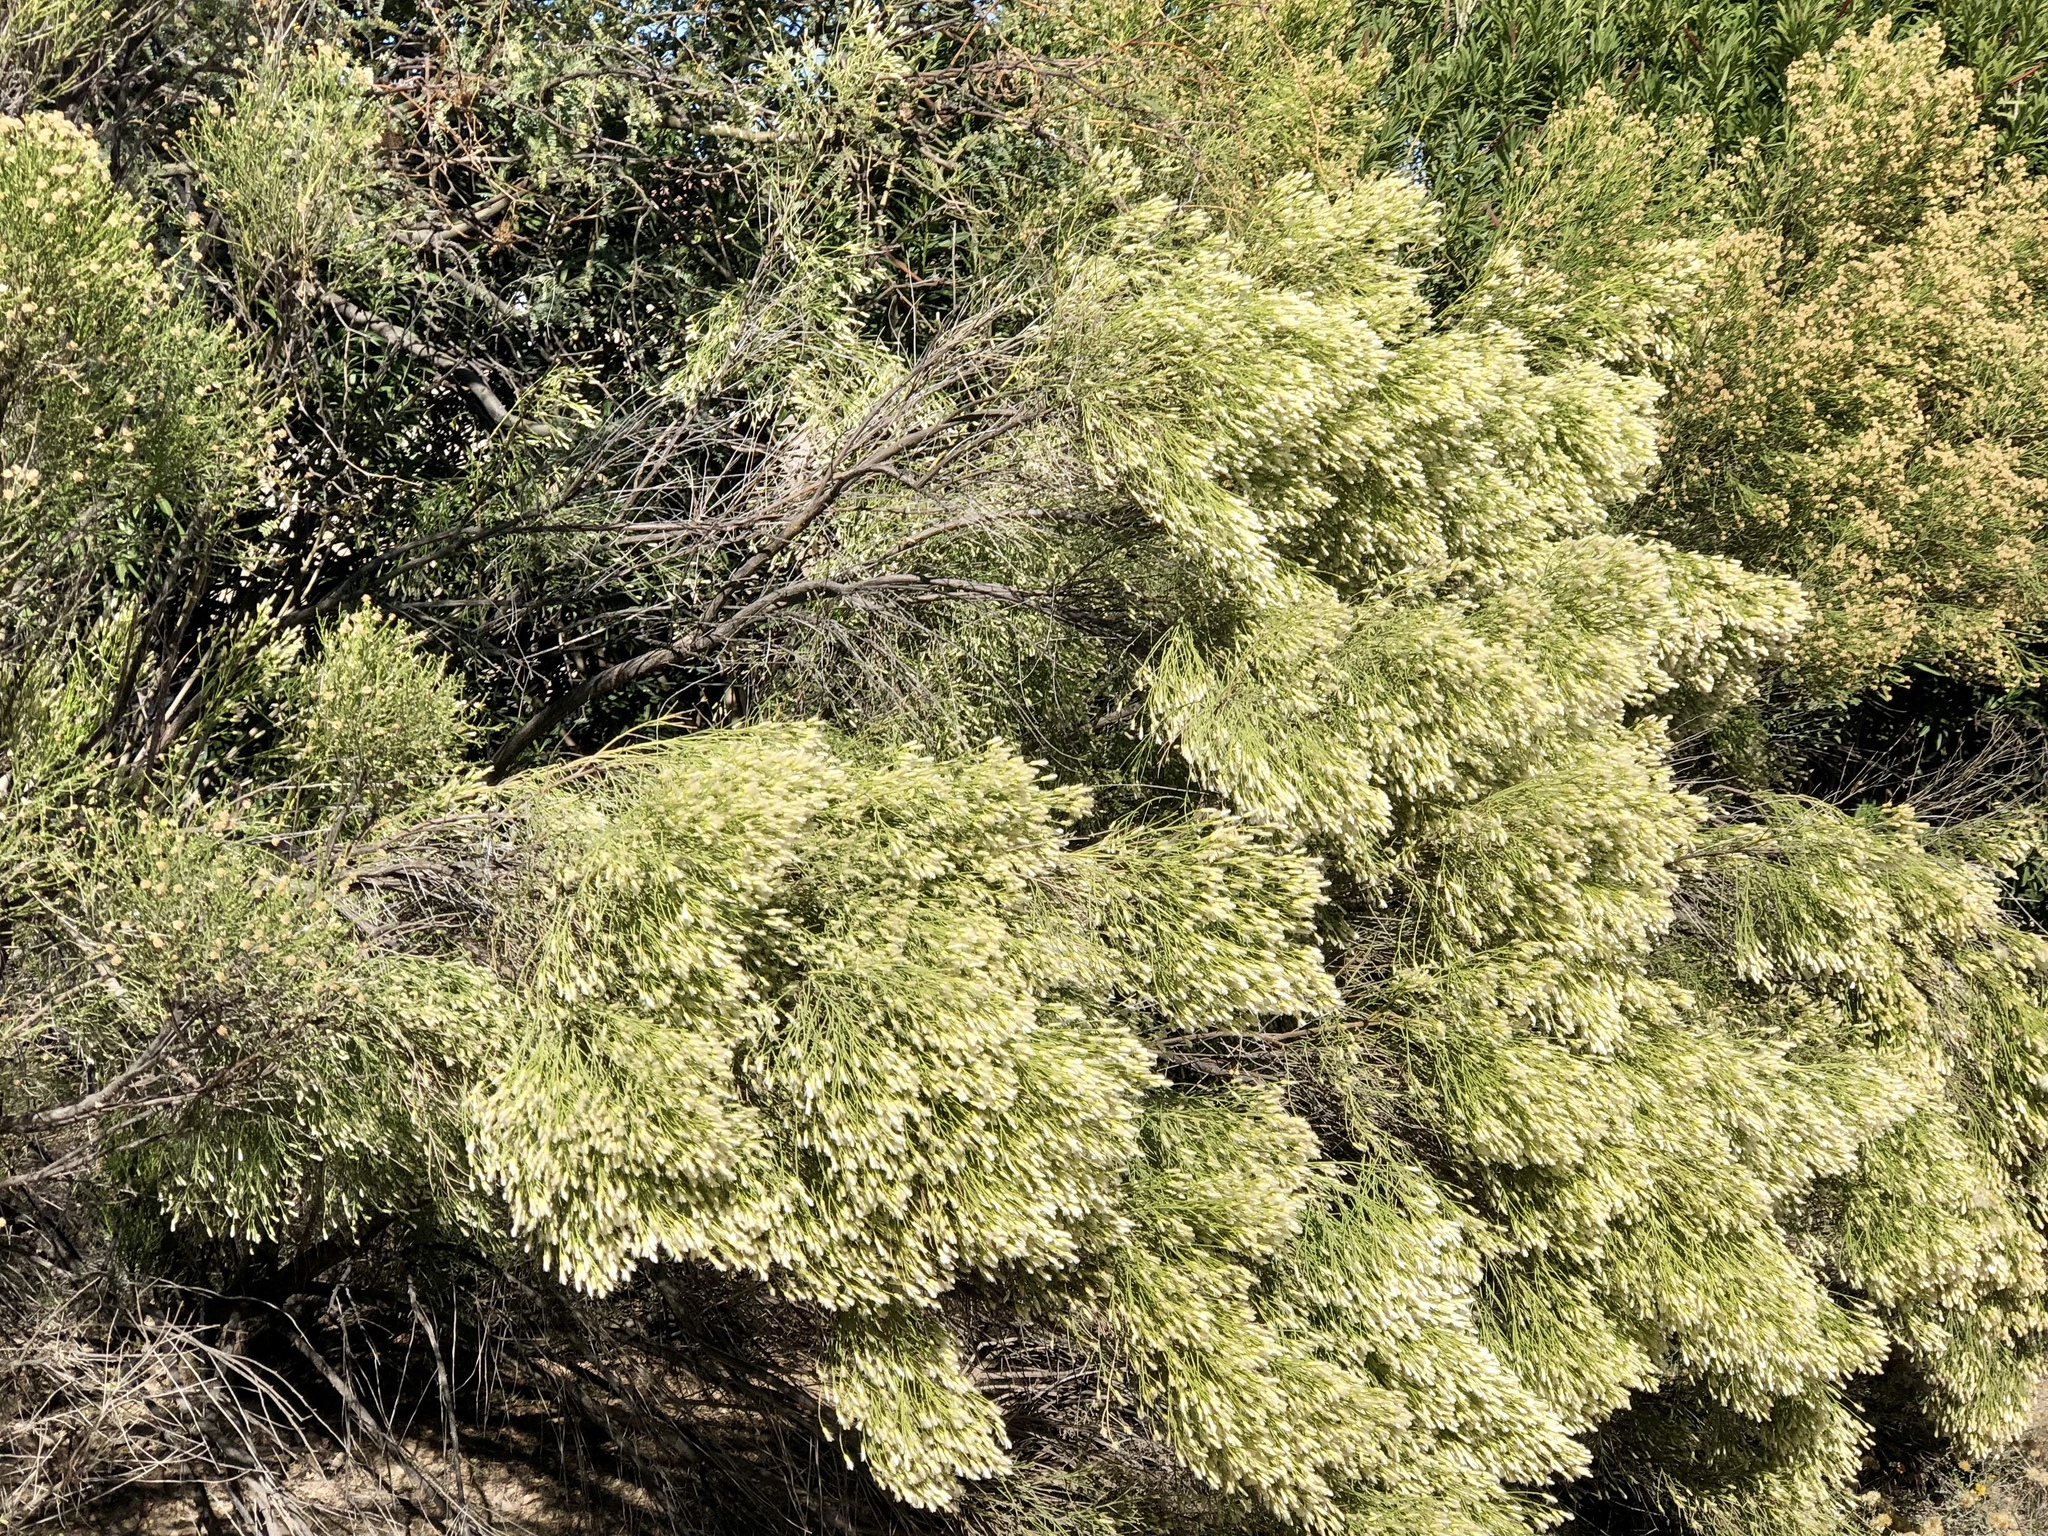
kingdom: Plantae
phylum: Tracheophyta
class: Magnoliopsida
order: Asterales
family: Asteraceae
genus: Baccharis
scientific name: Baccharis sarothroides
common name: Desert-broom
